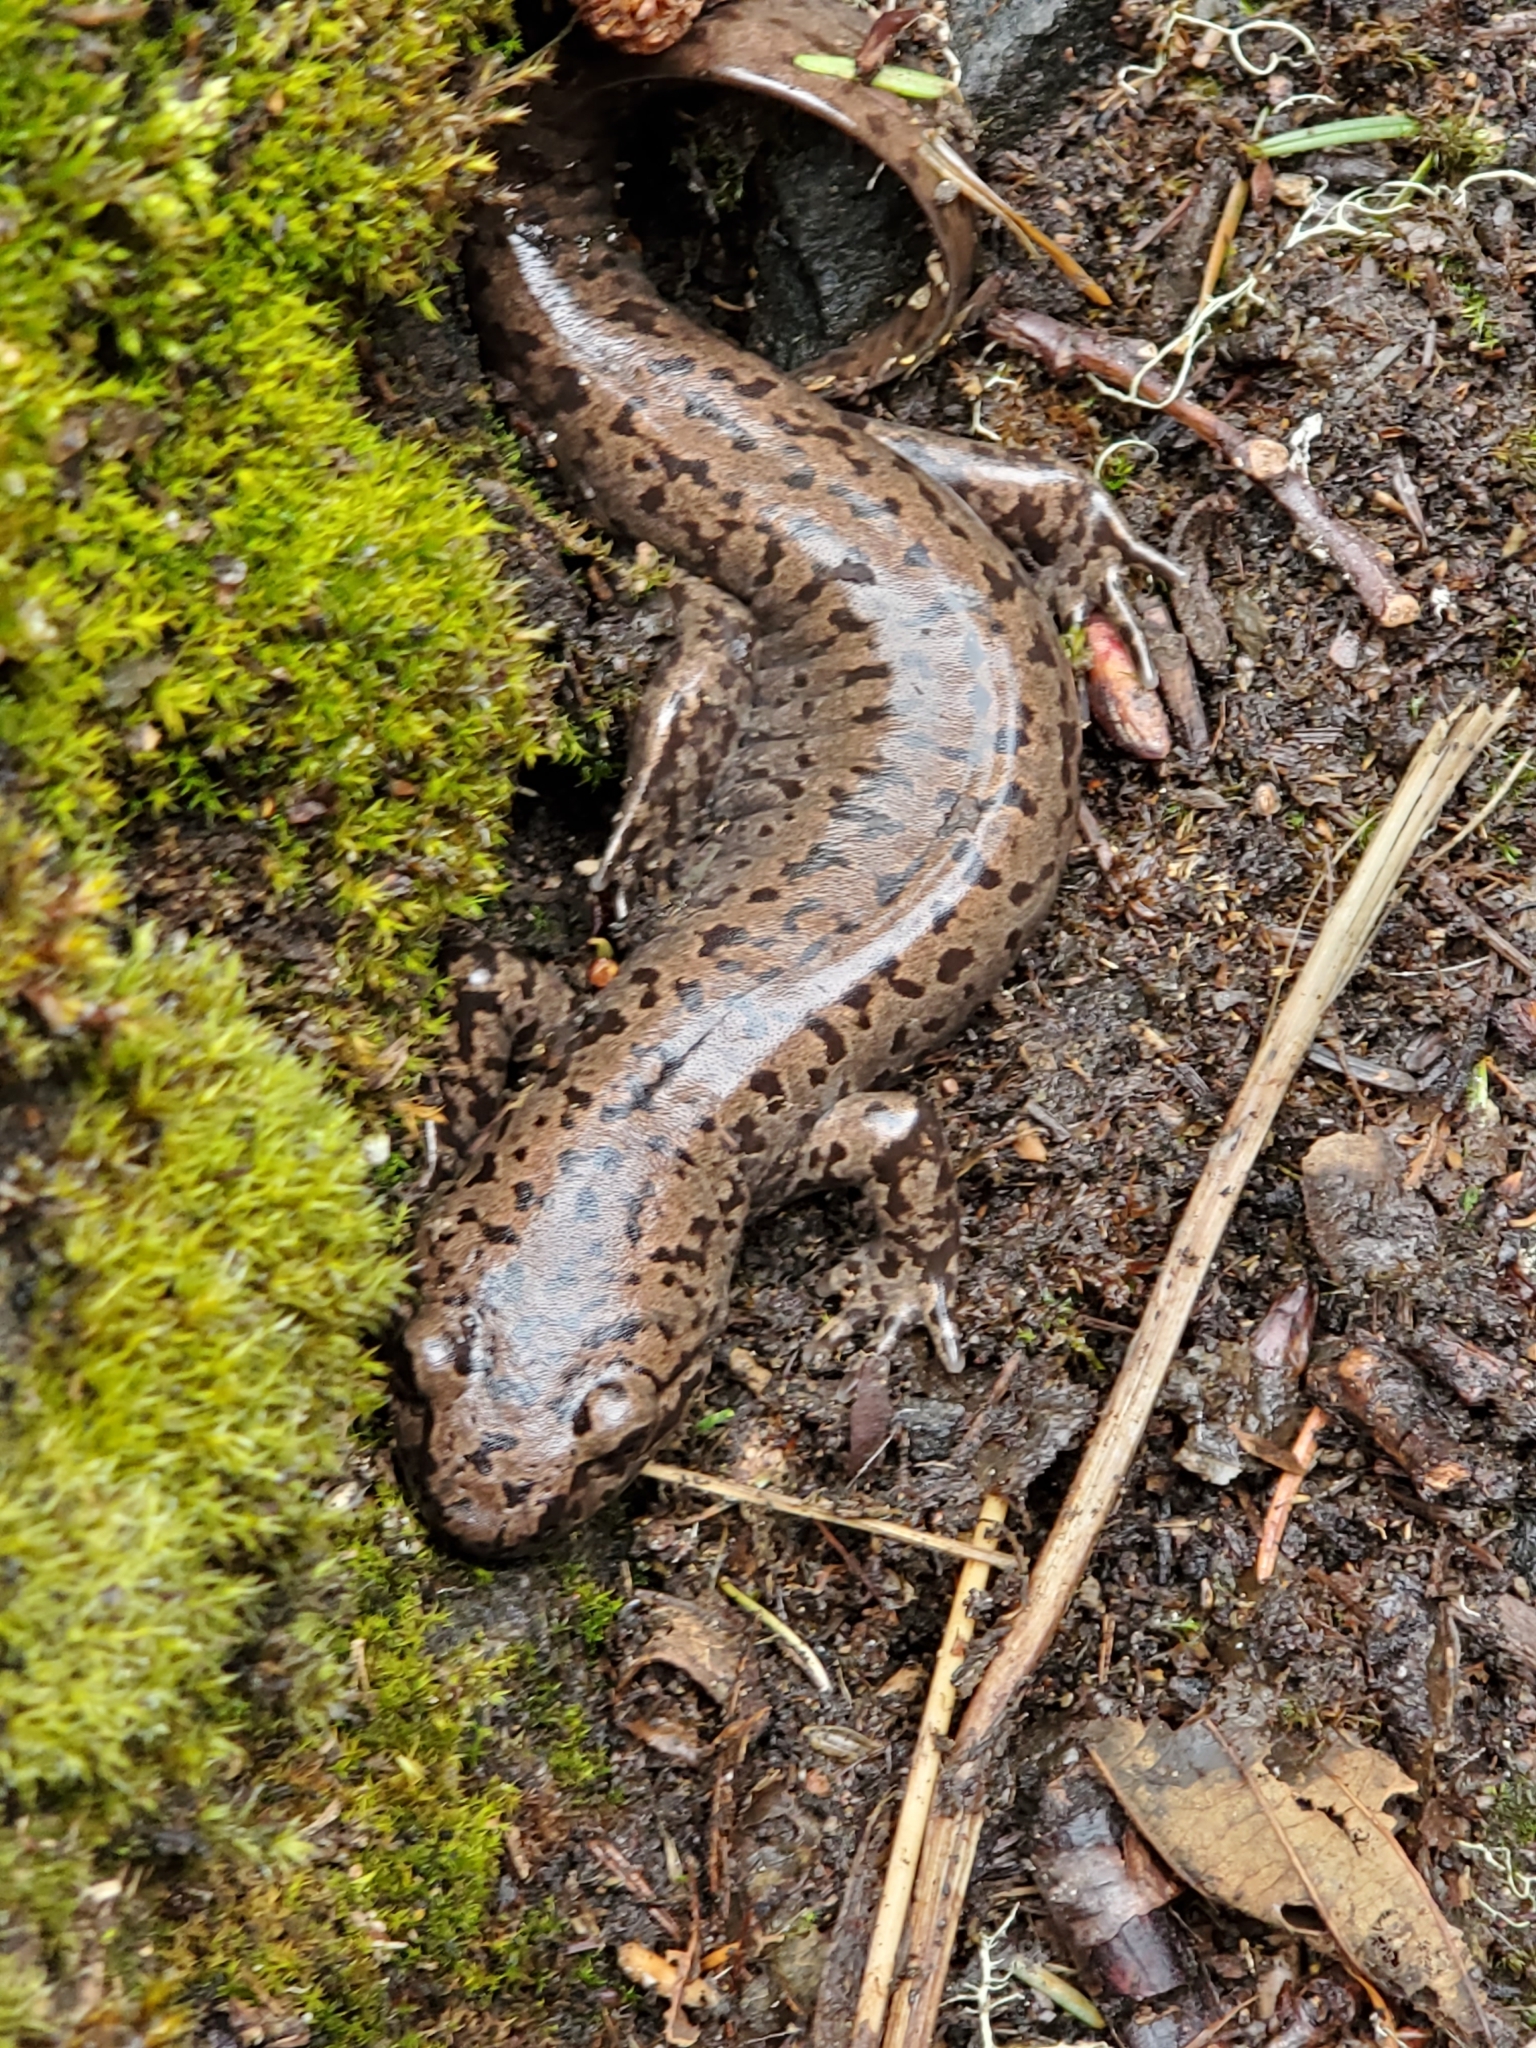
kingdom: Animalia
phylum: Chordata
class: Amphibia
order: Caudata
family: Ambystomatidae
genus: Dicamptodon
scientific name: Dicamptodon tenebrosus
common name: Coastal giant salamander
